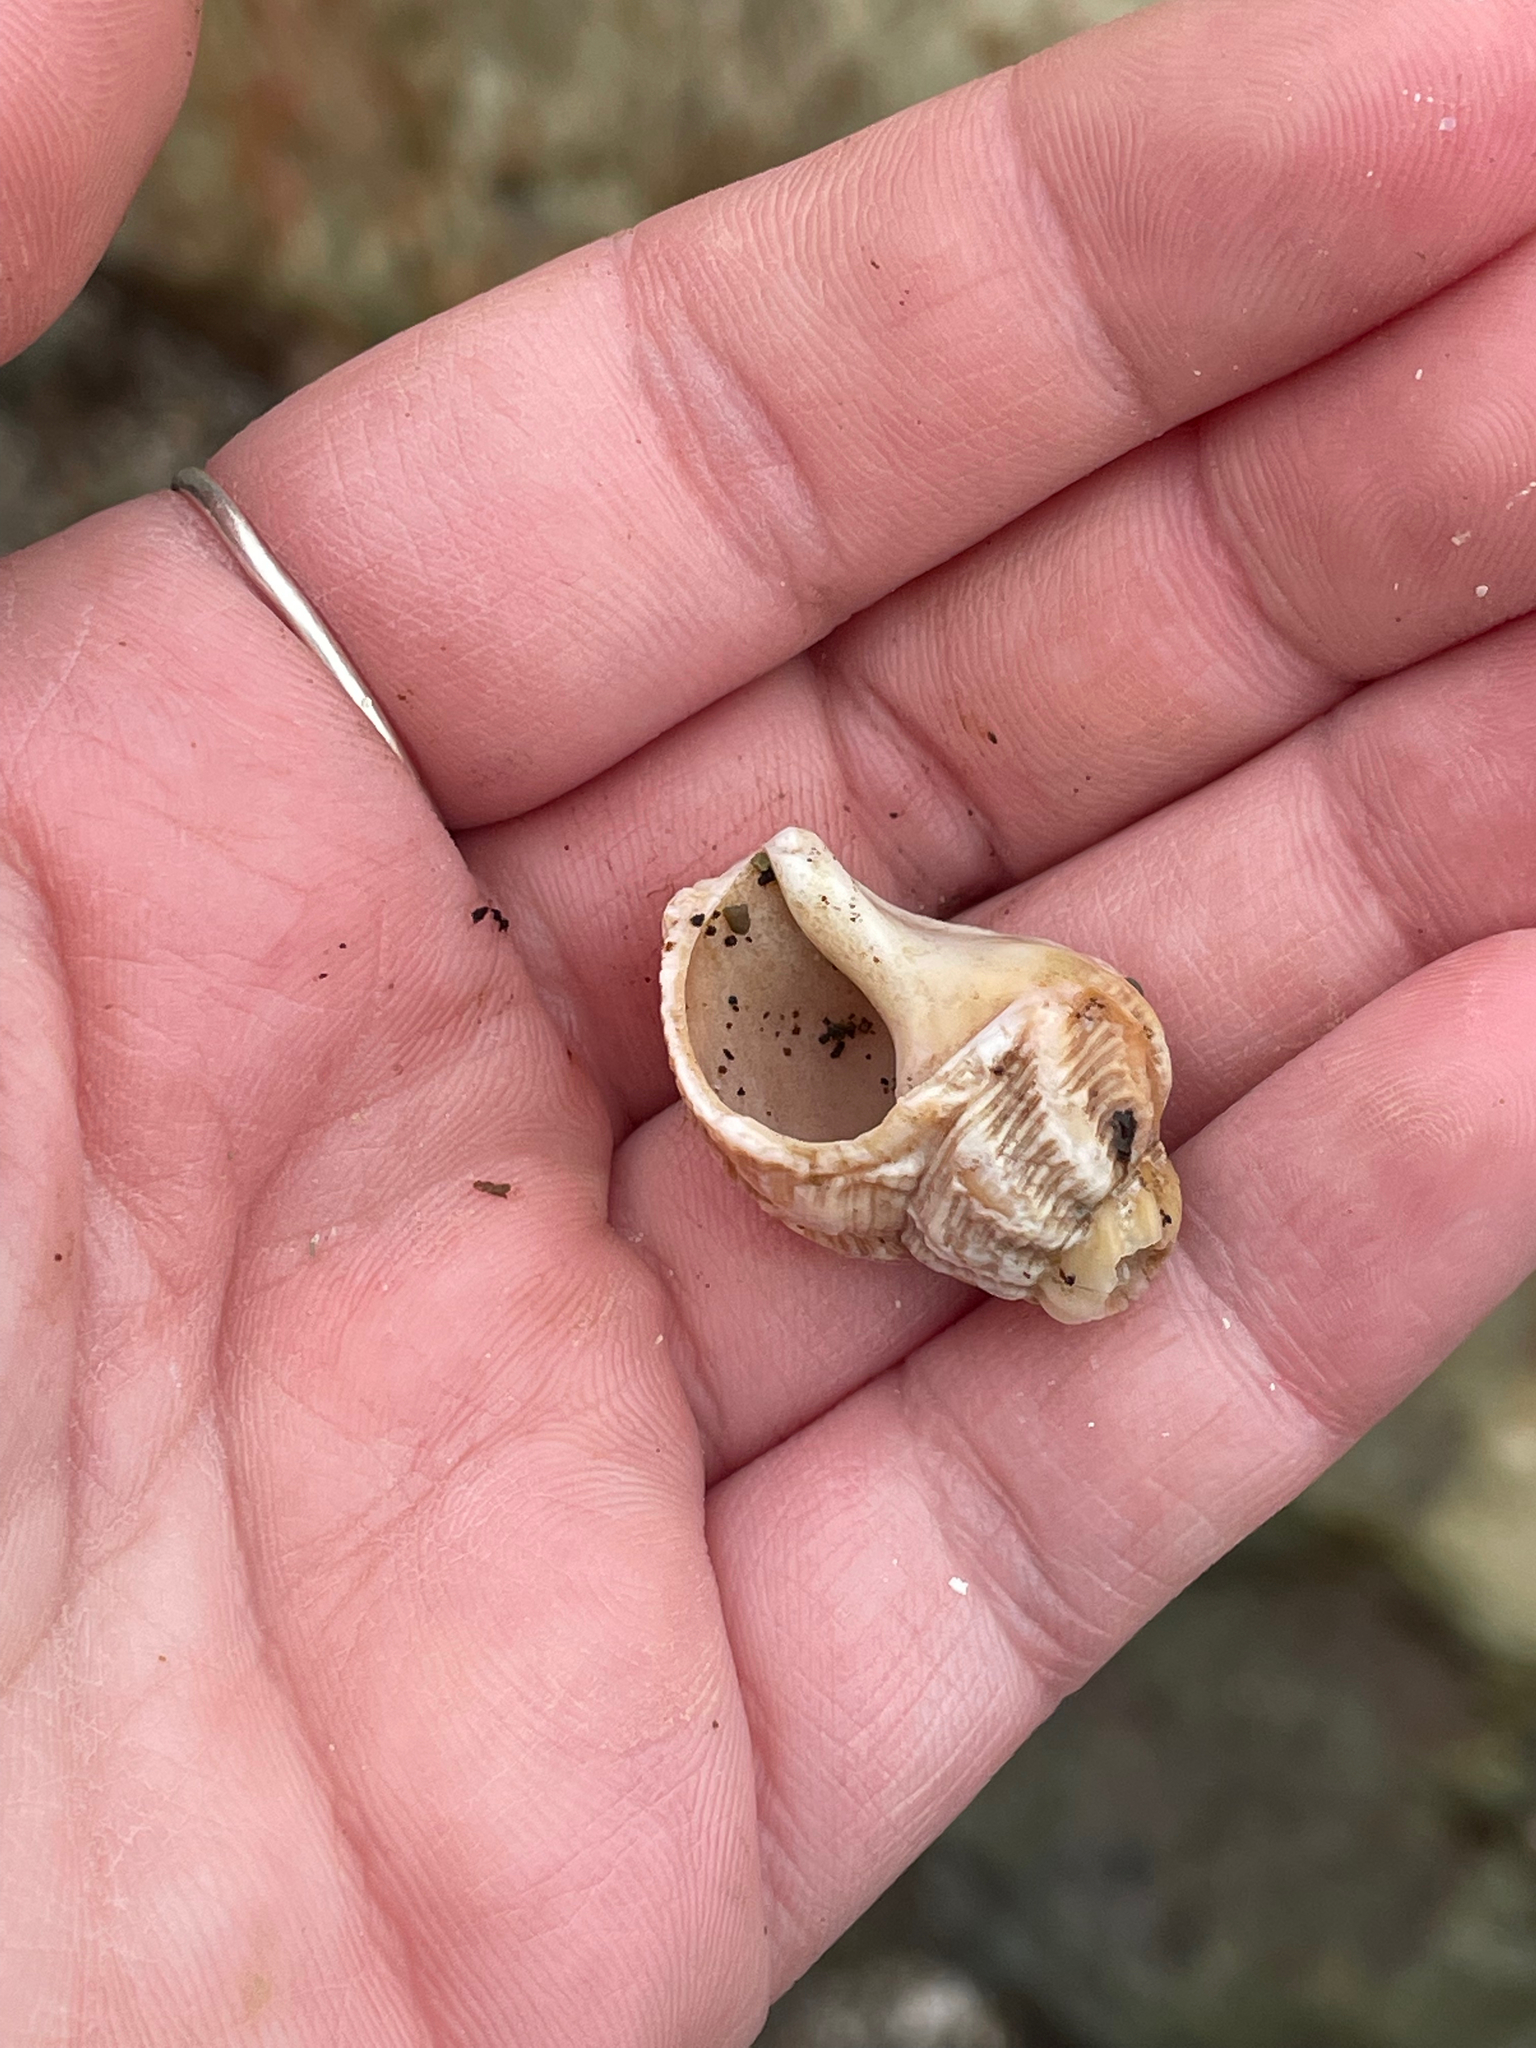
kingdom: Animalia
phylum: Mollusca
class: Gastropoda
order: Neogastropoda
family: Buccinidae
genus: Buccinum
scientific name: Buccinum undatum
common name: Common whelk
